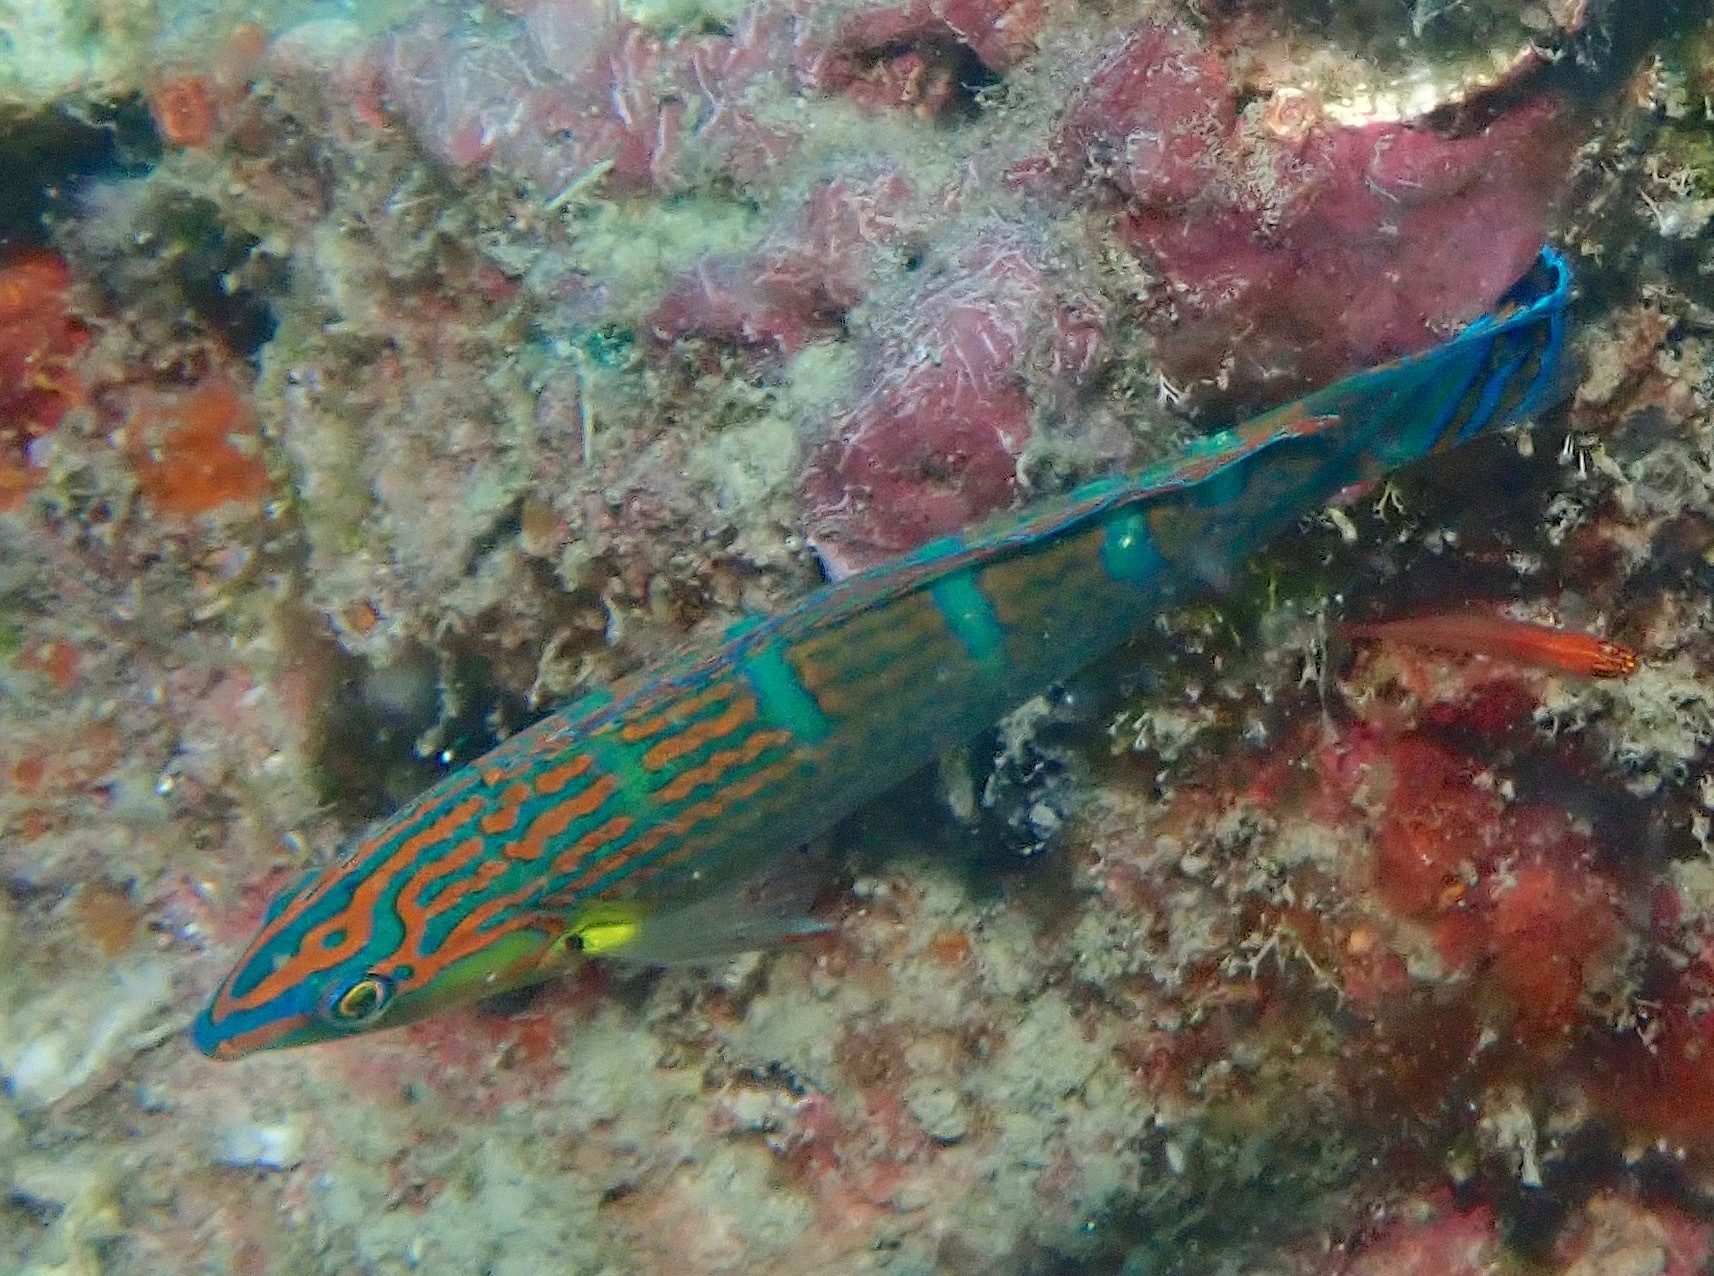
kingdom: Animalia
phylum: Chordata
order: Perciformes
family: Labridae
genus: Halichoeres
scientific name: Halichoeres melanurus
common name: Hoeven's wrasse
